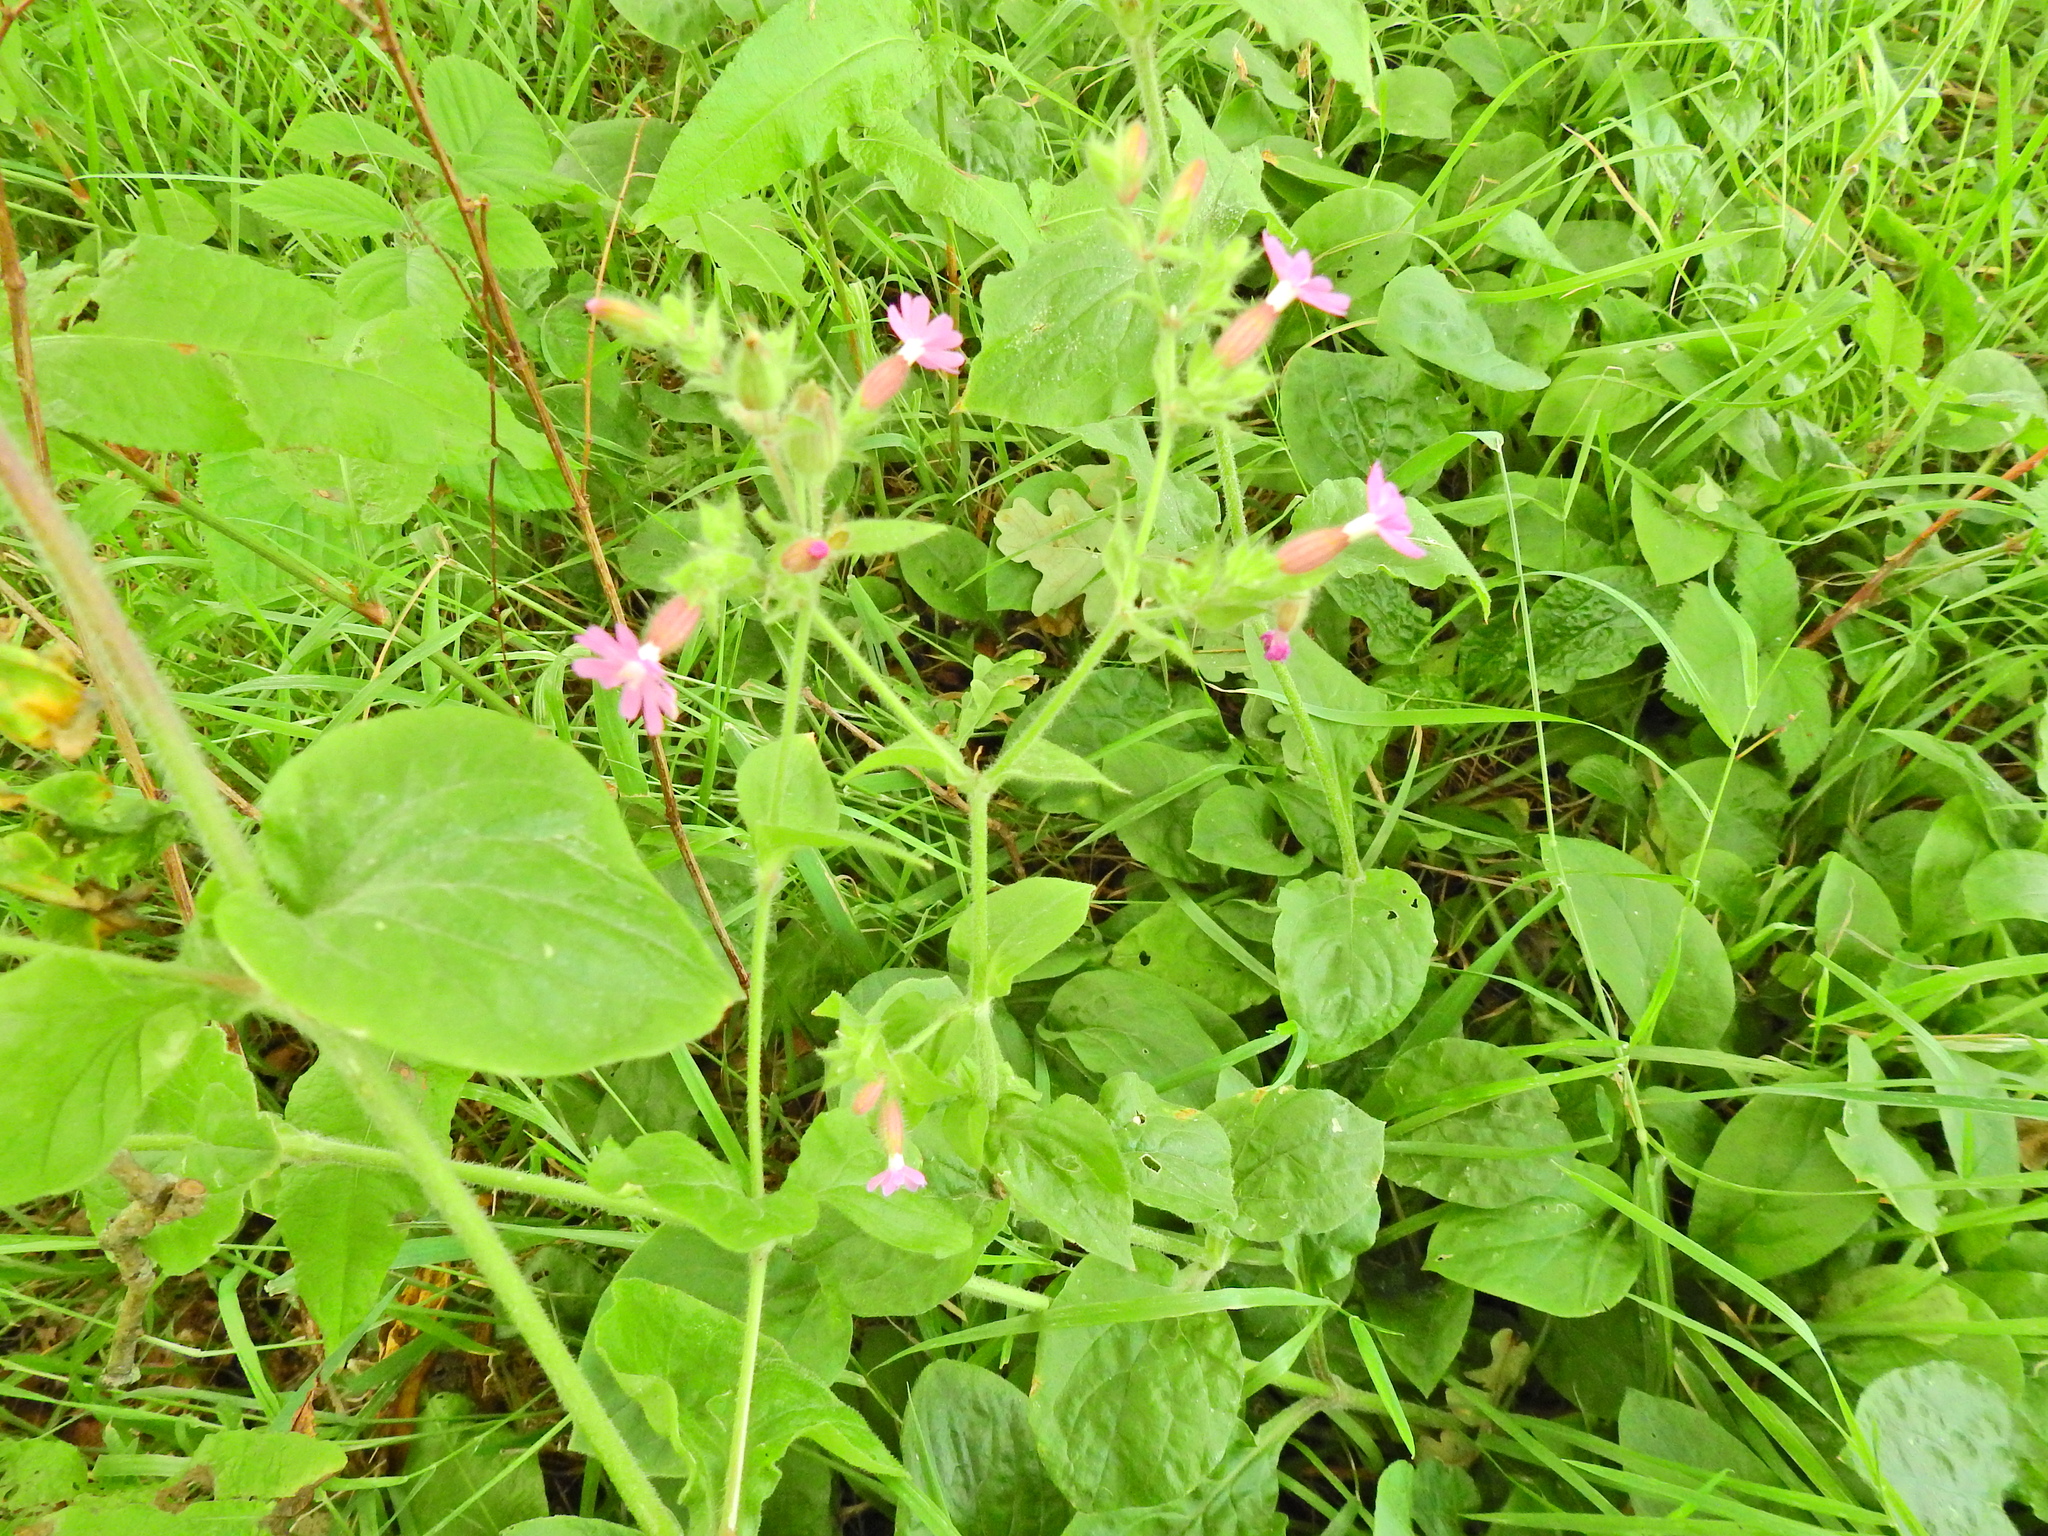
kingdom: Plantae
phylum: Tracheophyta
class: Magnoliopsida
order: Caryophyllales
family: Caryophyllaceae
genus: Silene
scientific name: Silene dioica
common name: Red campion
